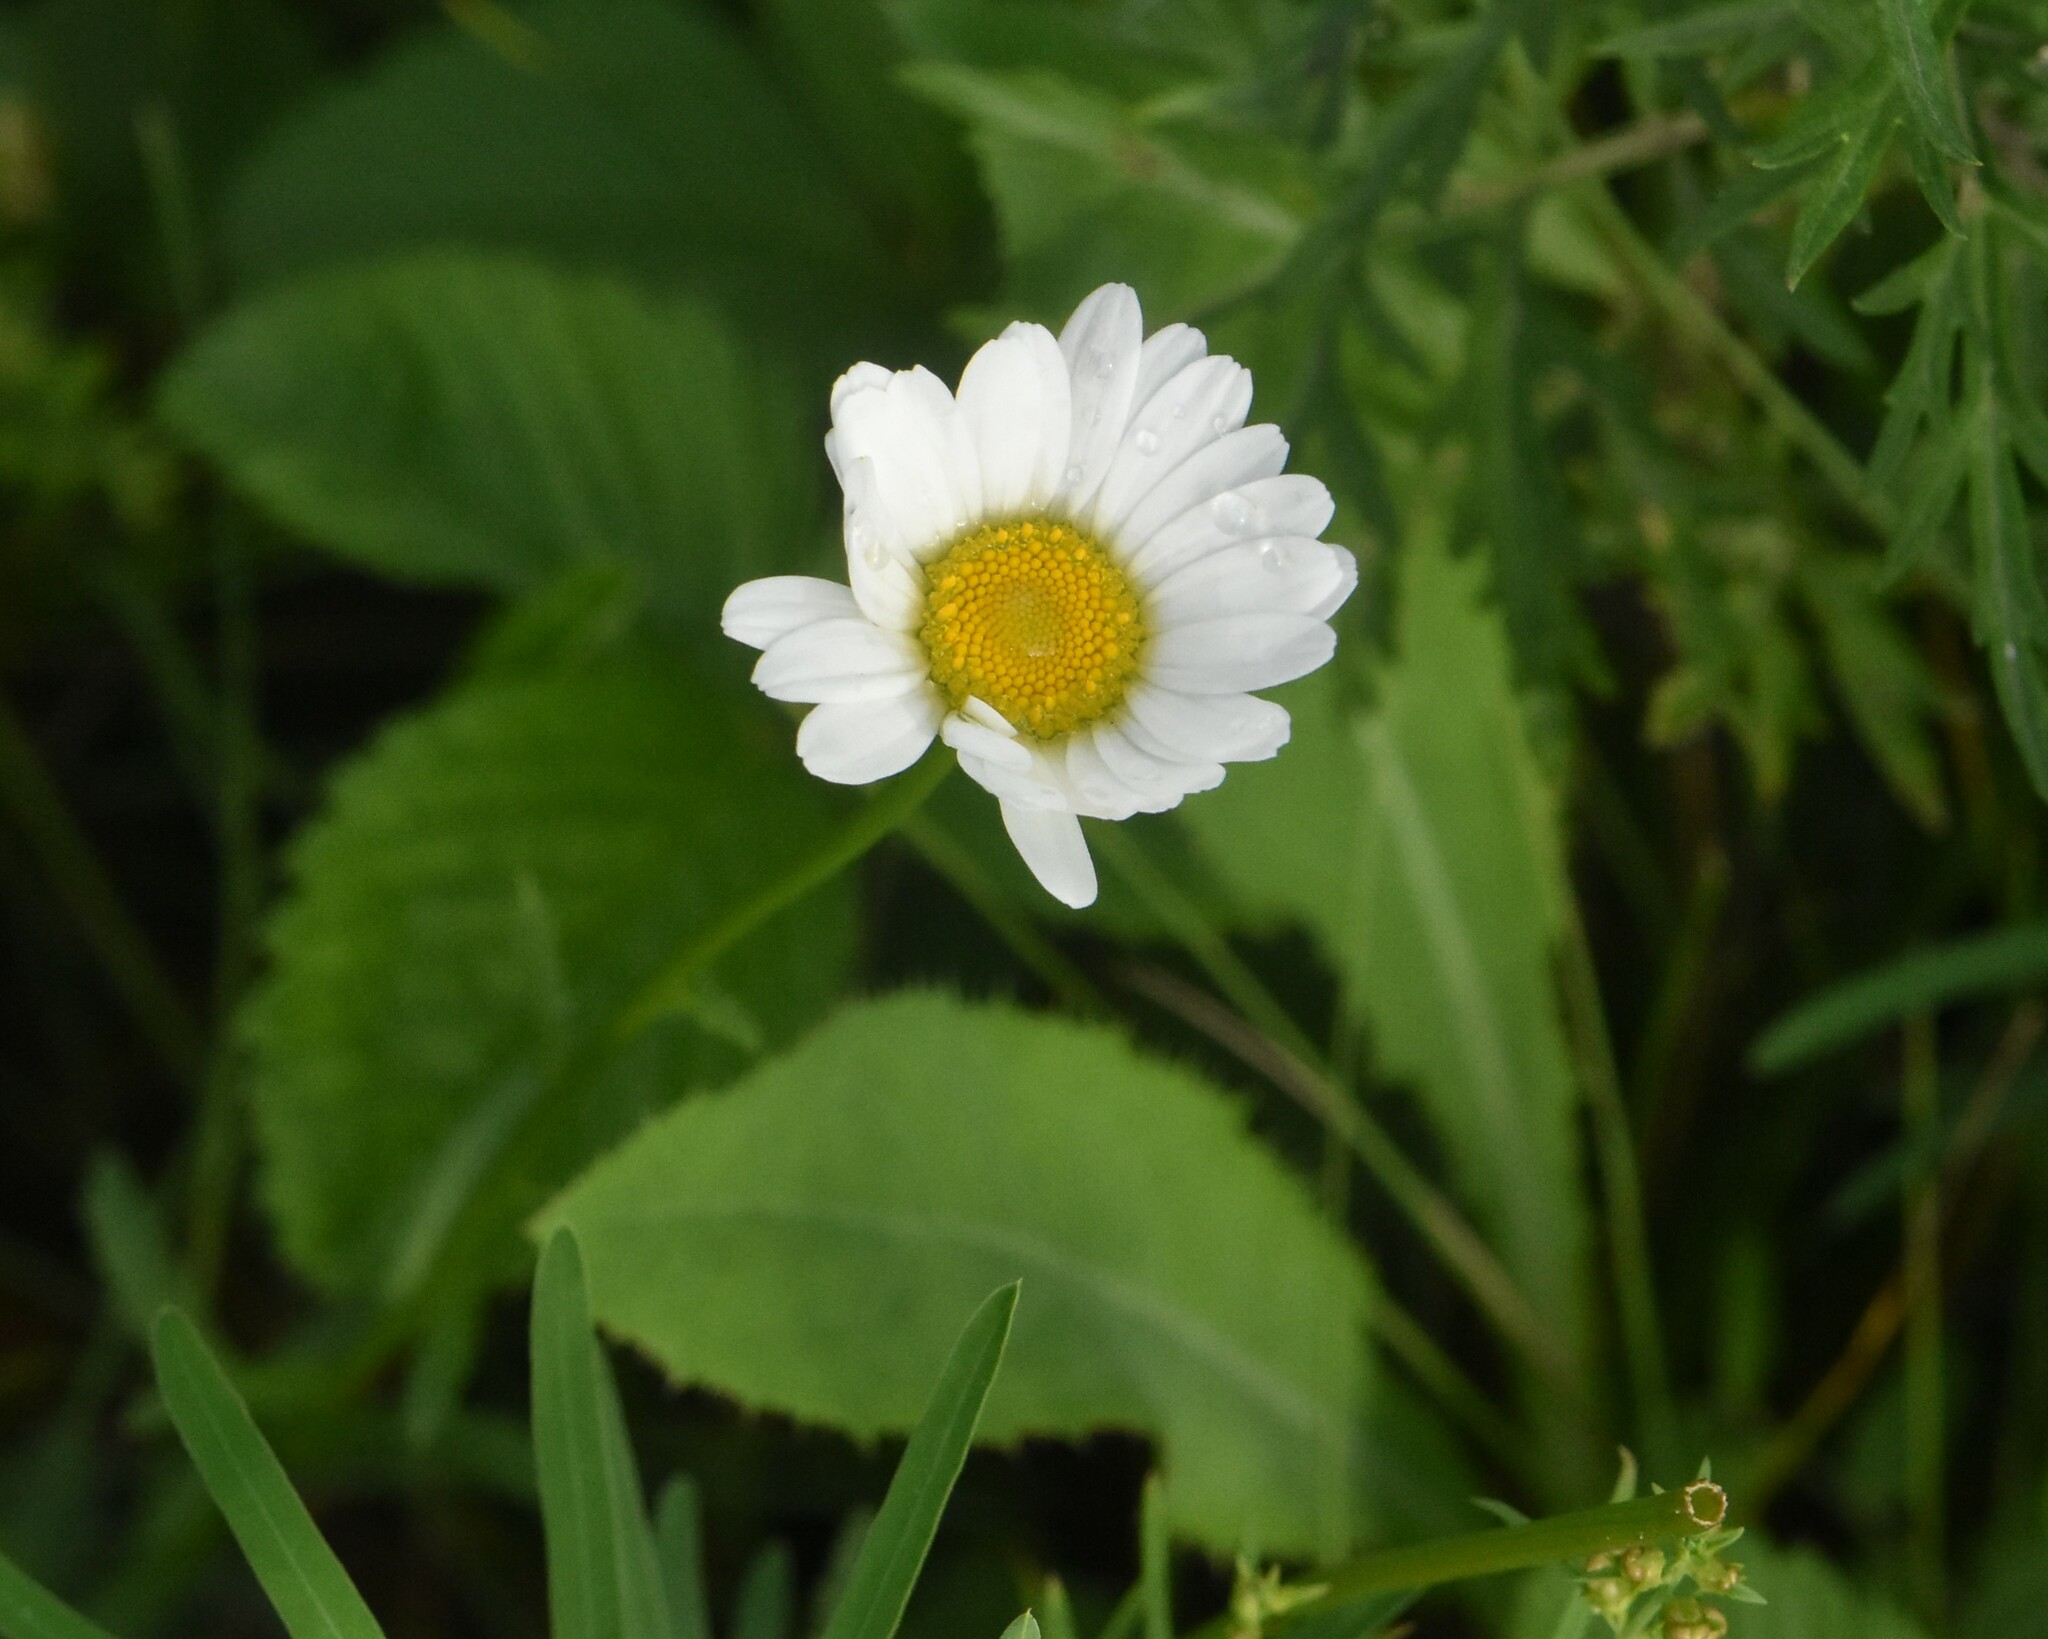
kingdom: Plantae
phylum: Tracheophyta
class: Magnoliopsida
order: Asterales
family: Asteraceae
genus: Leucanthemum
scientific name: Leucanthemum vulgare
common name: Oxeye daisy
